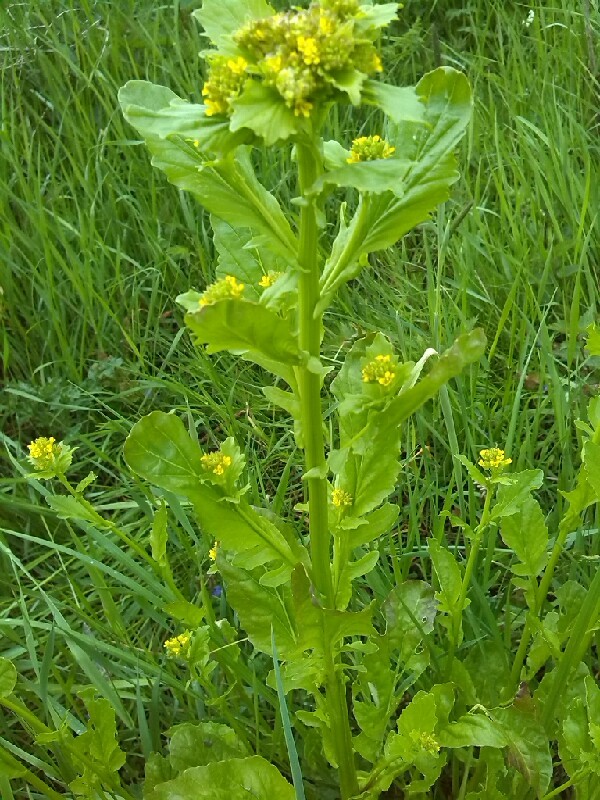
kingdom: Plantae
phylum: Tracheophyta
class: Magnoliopsida
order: Brassicales
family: Brassicaceae
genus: Barbarea
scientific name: Barbarea stricta
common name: Small-flowered winter-cress
